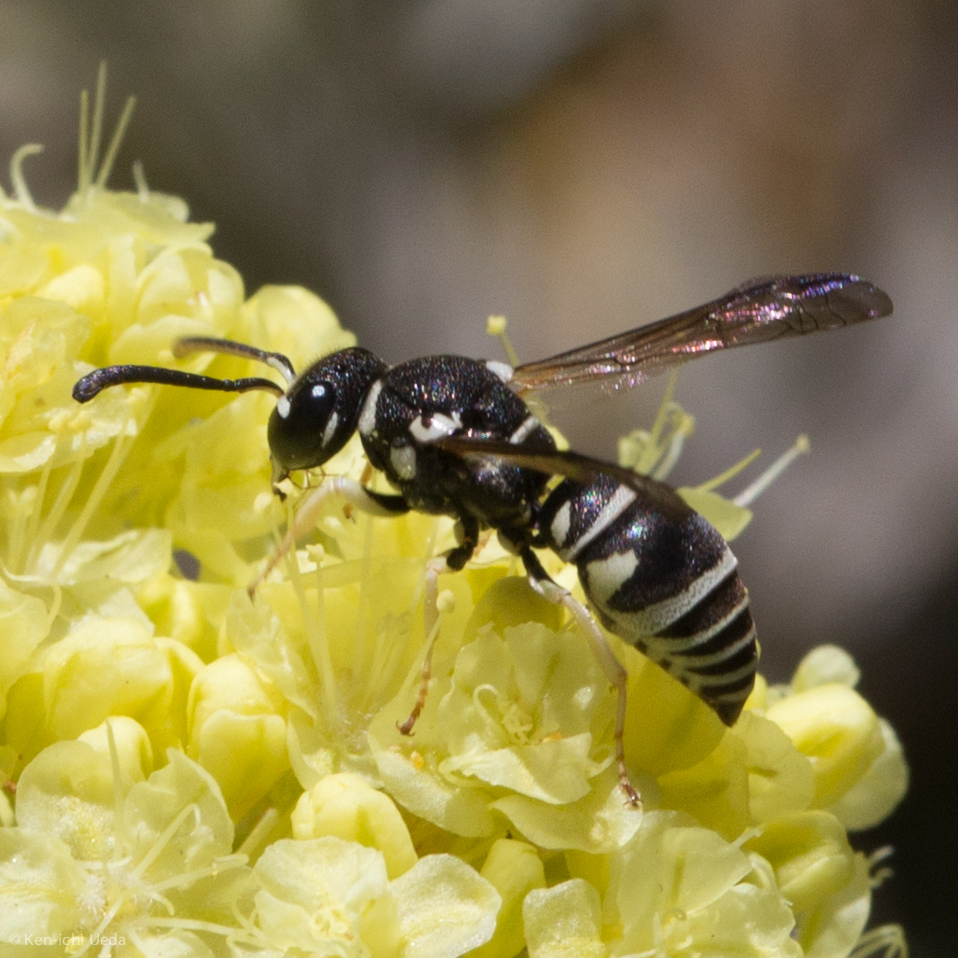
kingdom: Animalia
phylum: Arthropoda
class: Insecta
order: Hymenoptera
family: Eumenidae
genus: Rhynchalastor
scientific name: Rhynchalastor blandus
